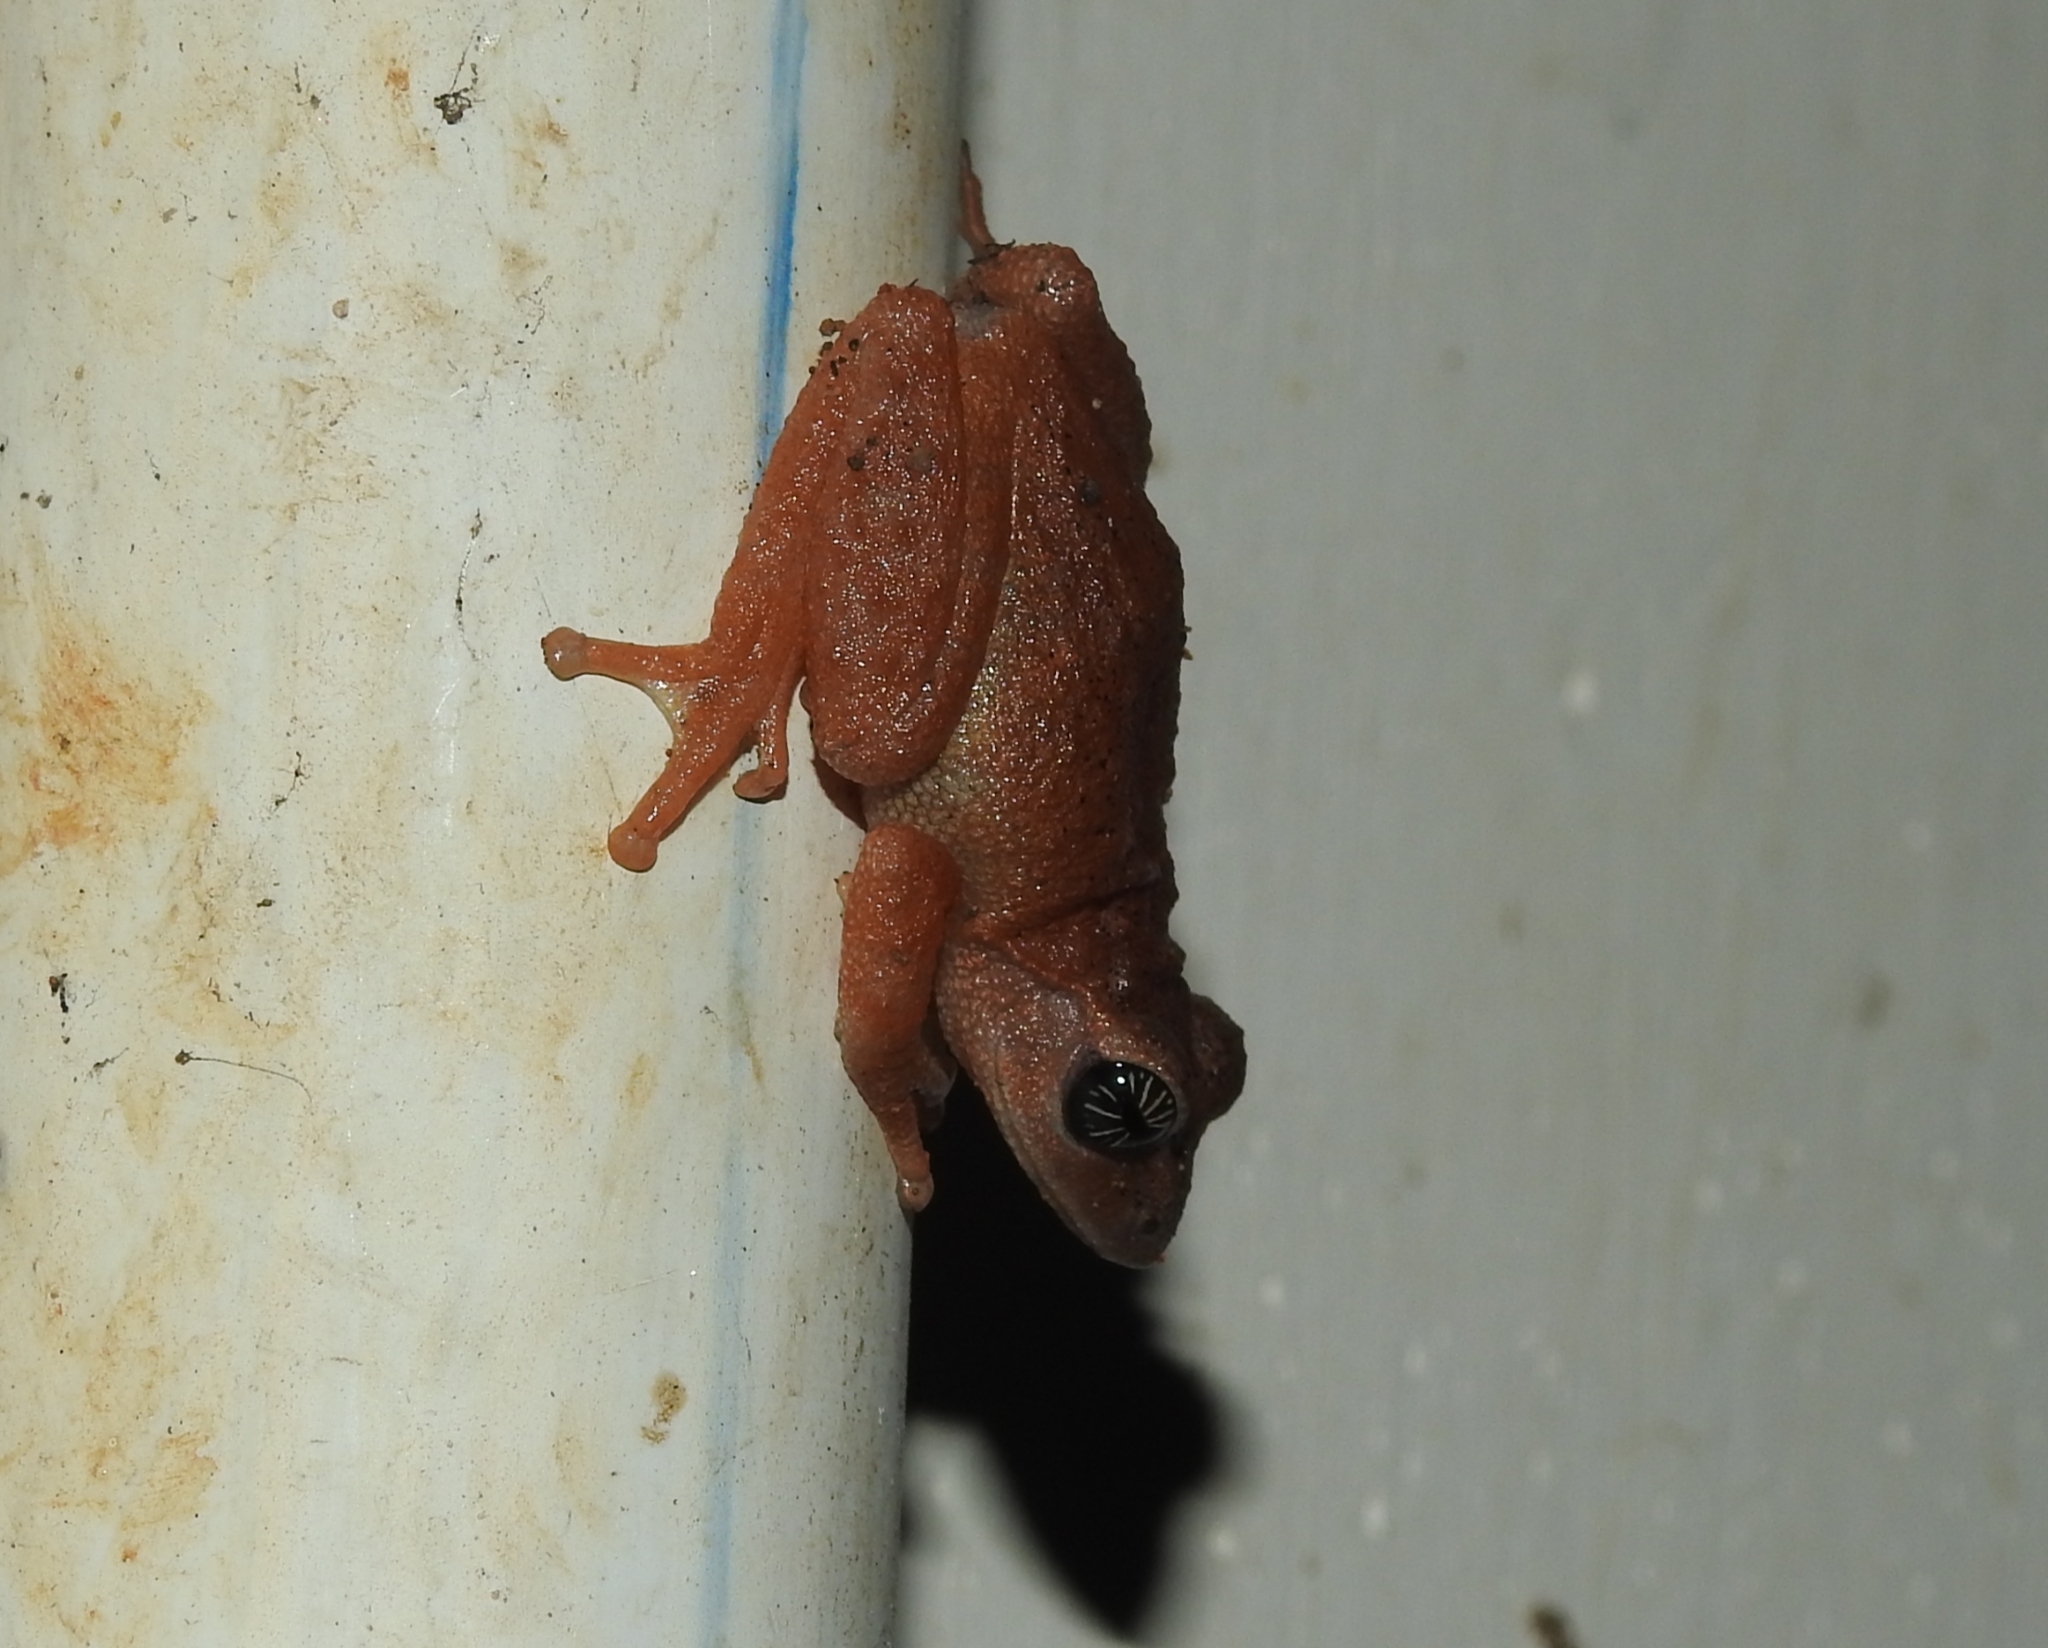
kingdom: Animalia
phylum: Chordata
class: Amphibia
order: Anura
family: Rhacophoridae
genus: Raorchestes
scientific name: Raorchestes signatus
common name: Cross-backed bush frog
